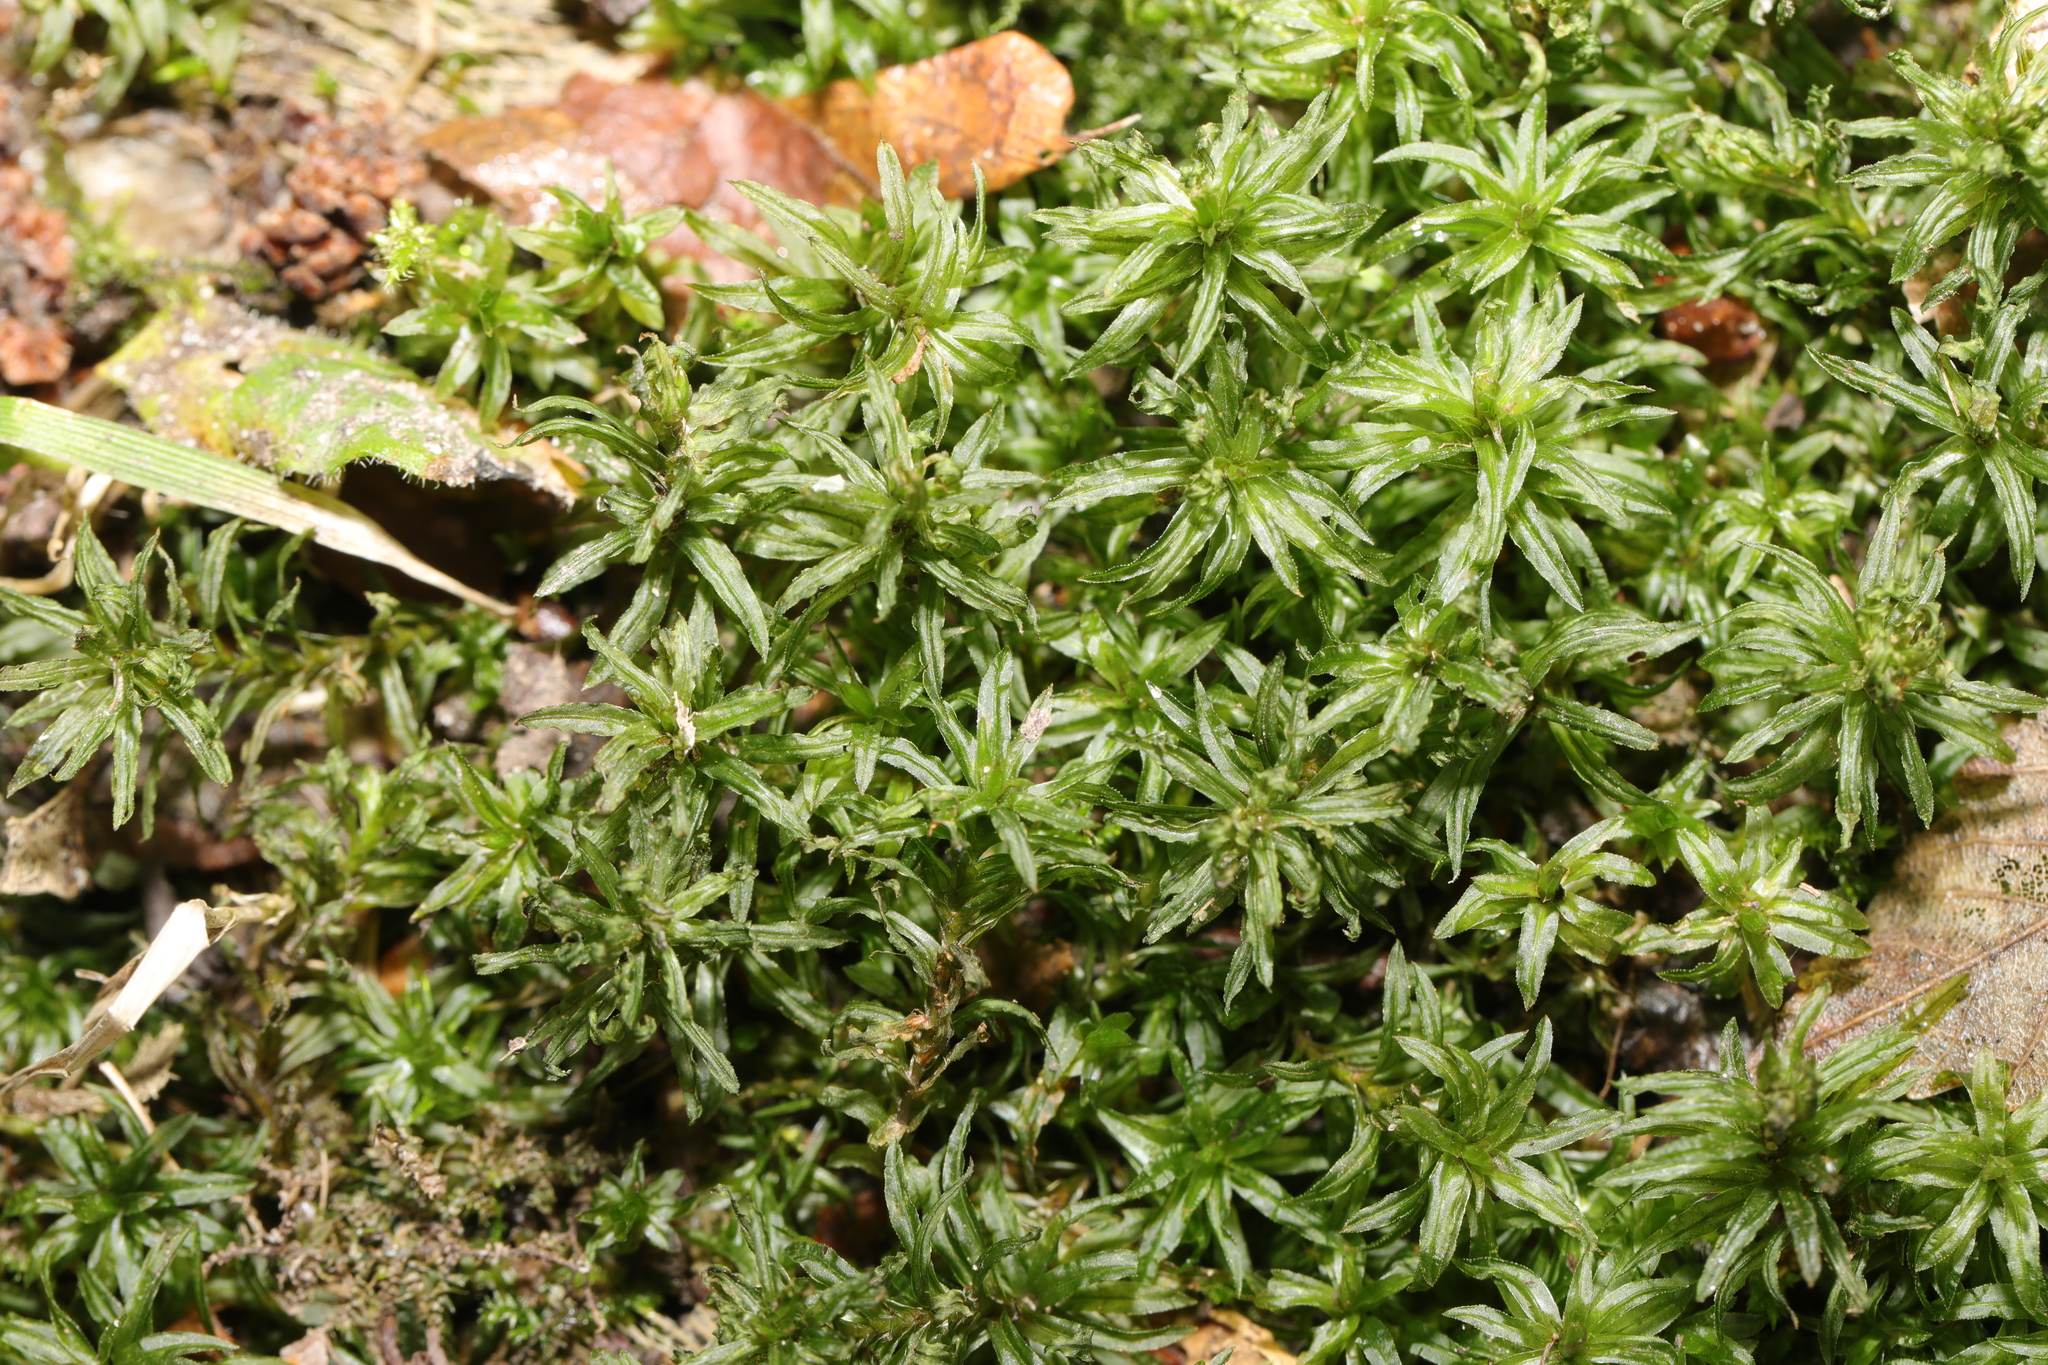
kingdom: Plantae
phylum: Bryophyta
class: Polytrichopsida
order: Polytrichales
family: Polytrichaceae
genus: Atrichum
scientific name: Atrichum undulatum
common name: Common smoothcap
